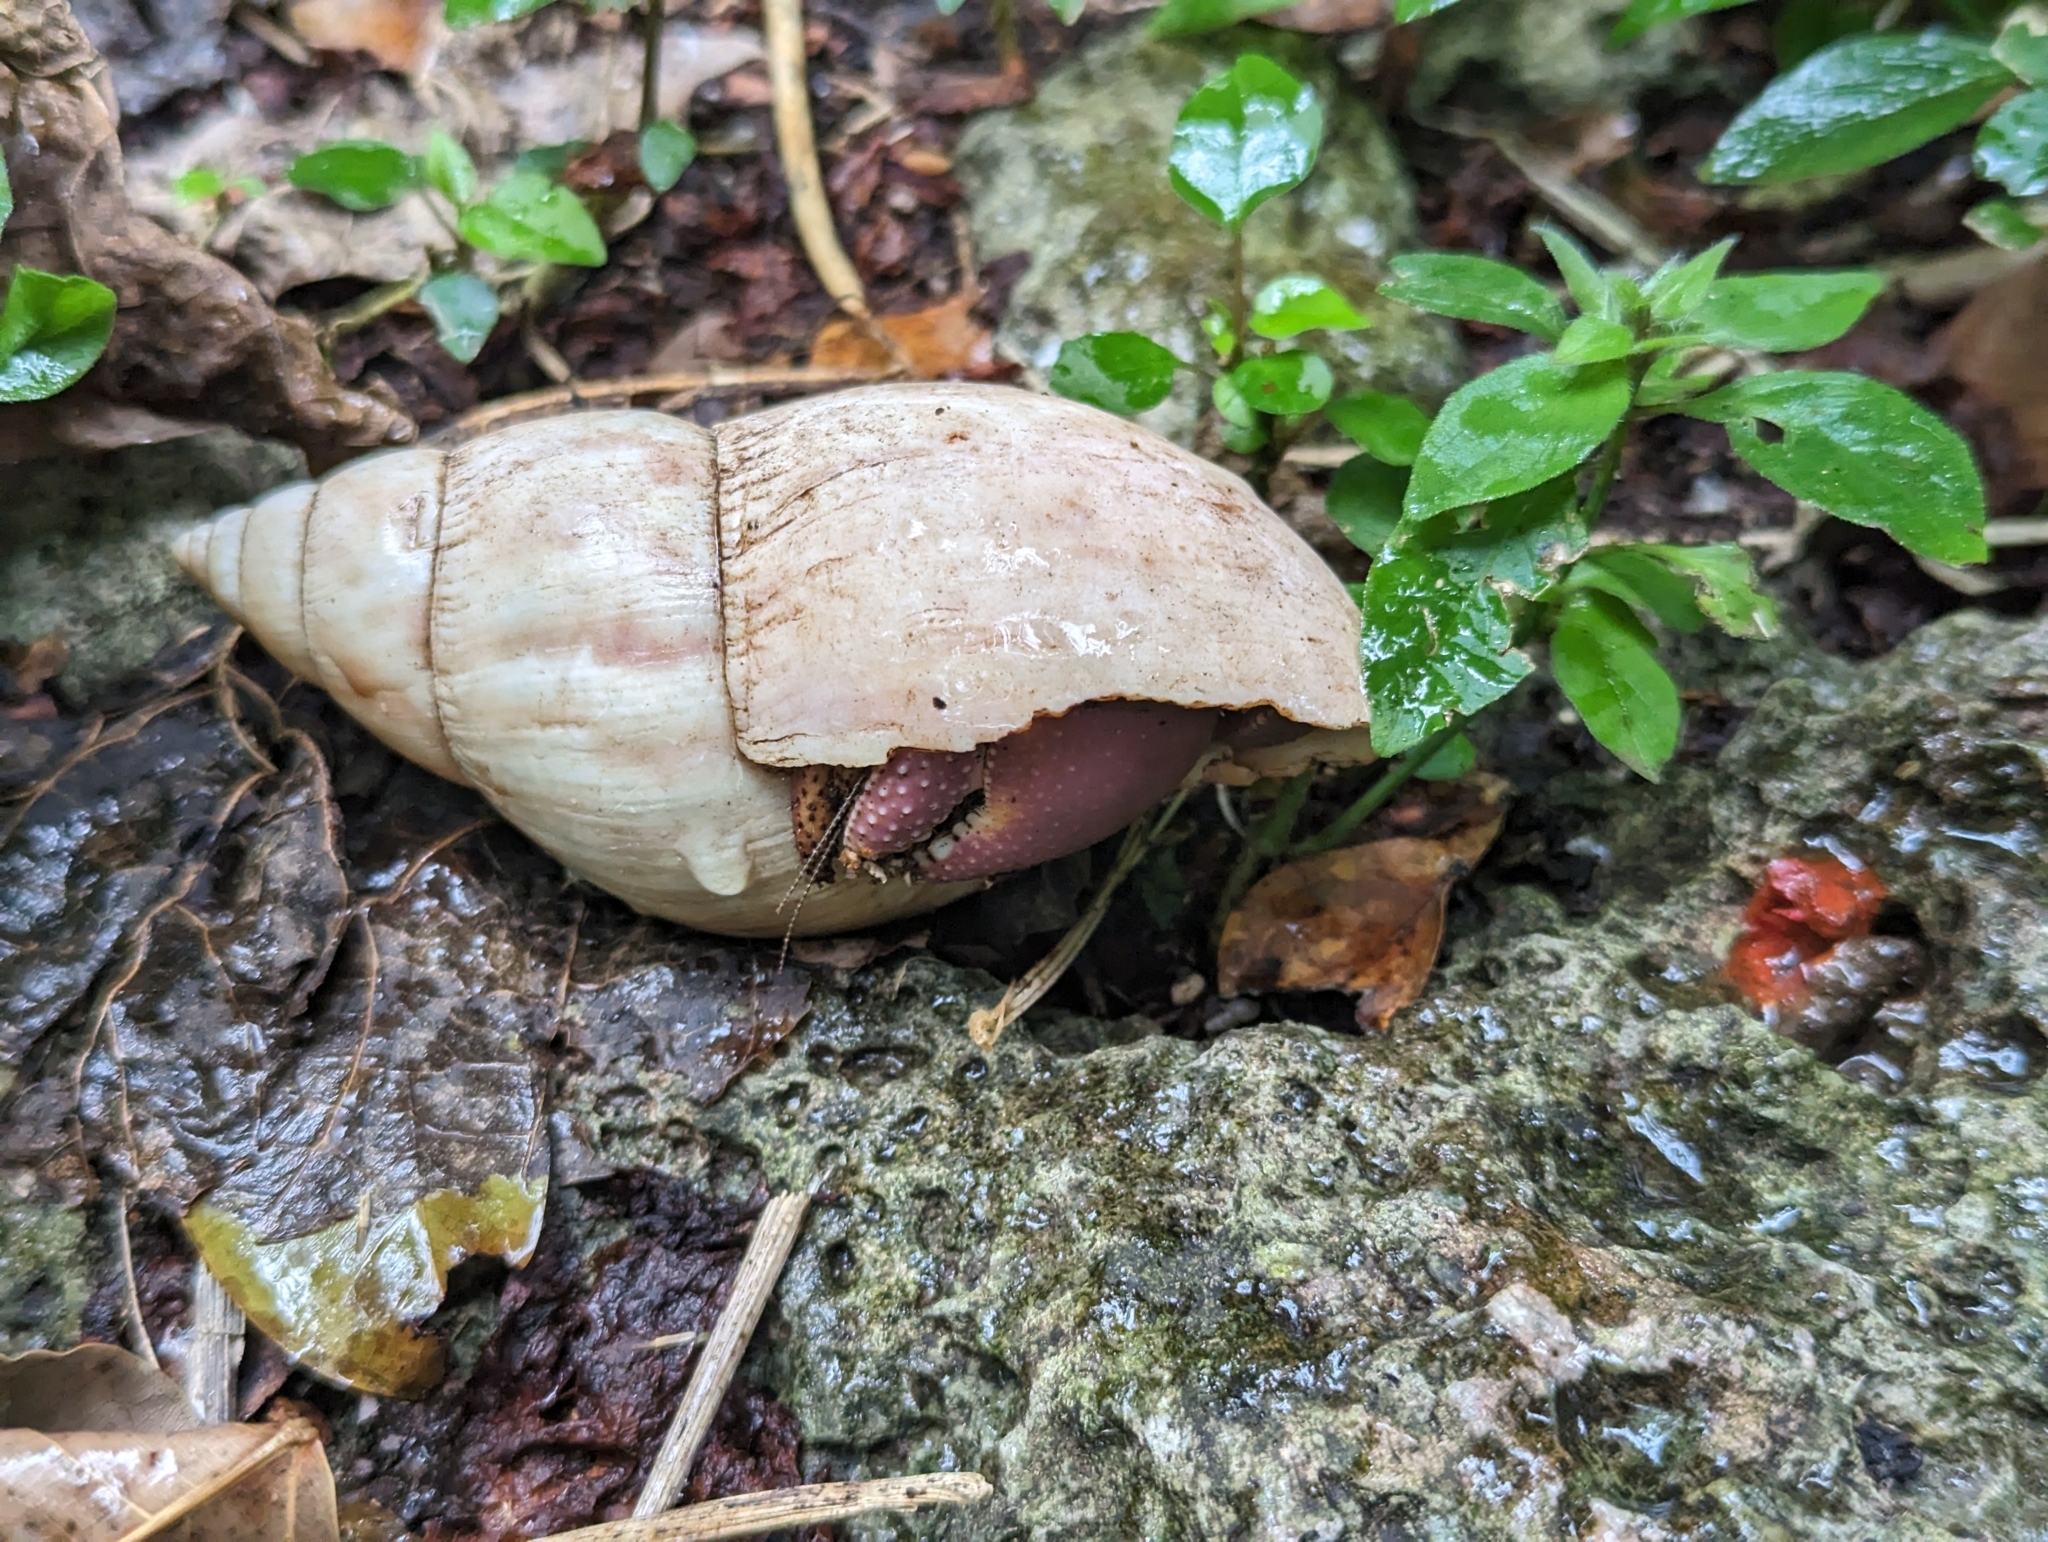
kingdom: Animalia
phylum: Arthropoda
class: Malacostraca
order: Decapoda
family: Coenobitidae
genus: Coenobita
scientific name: Coenobita brevimanus
